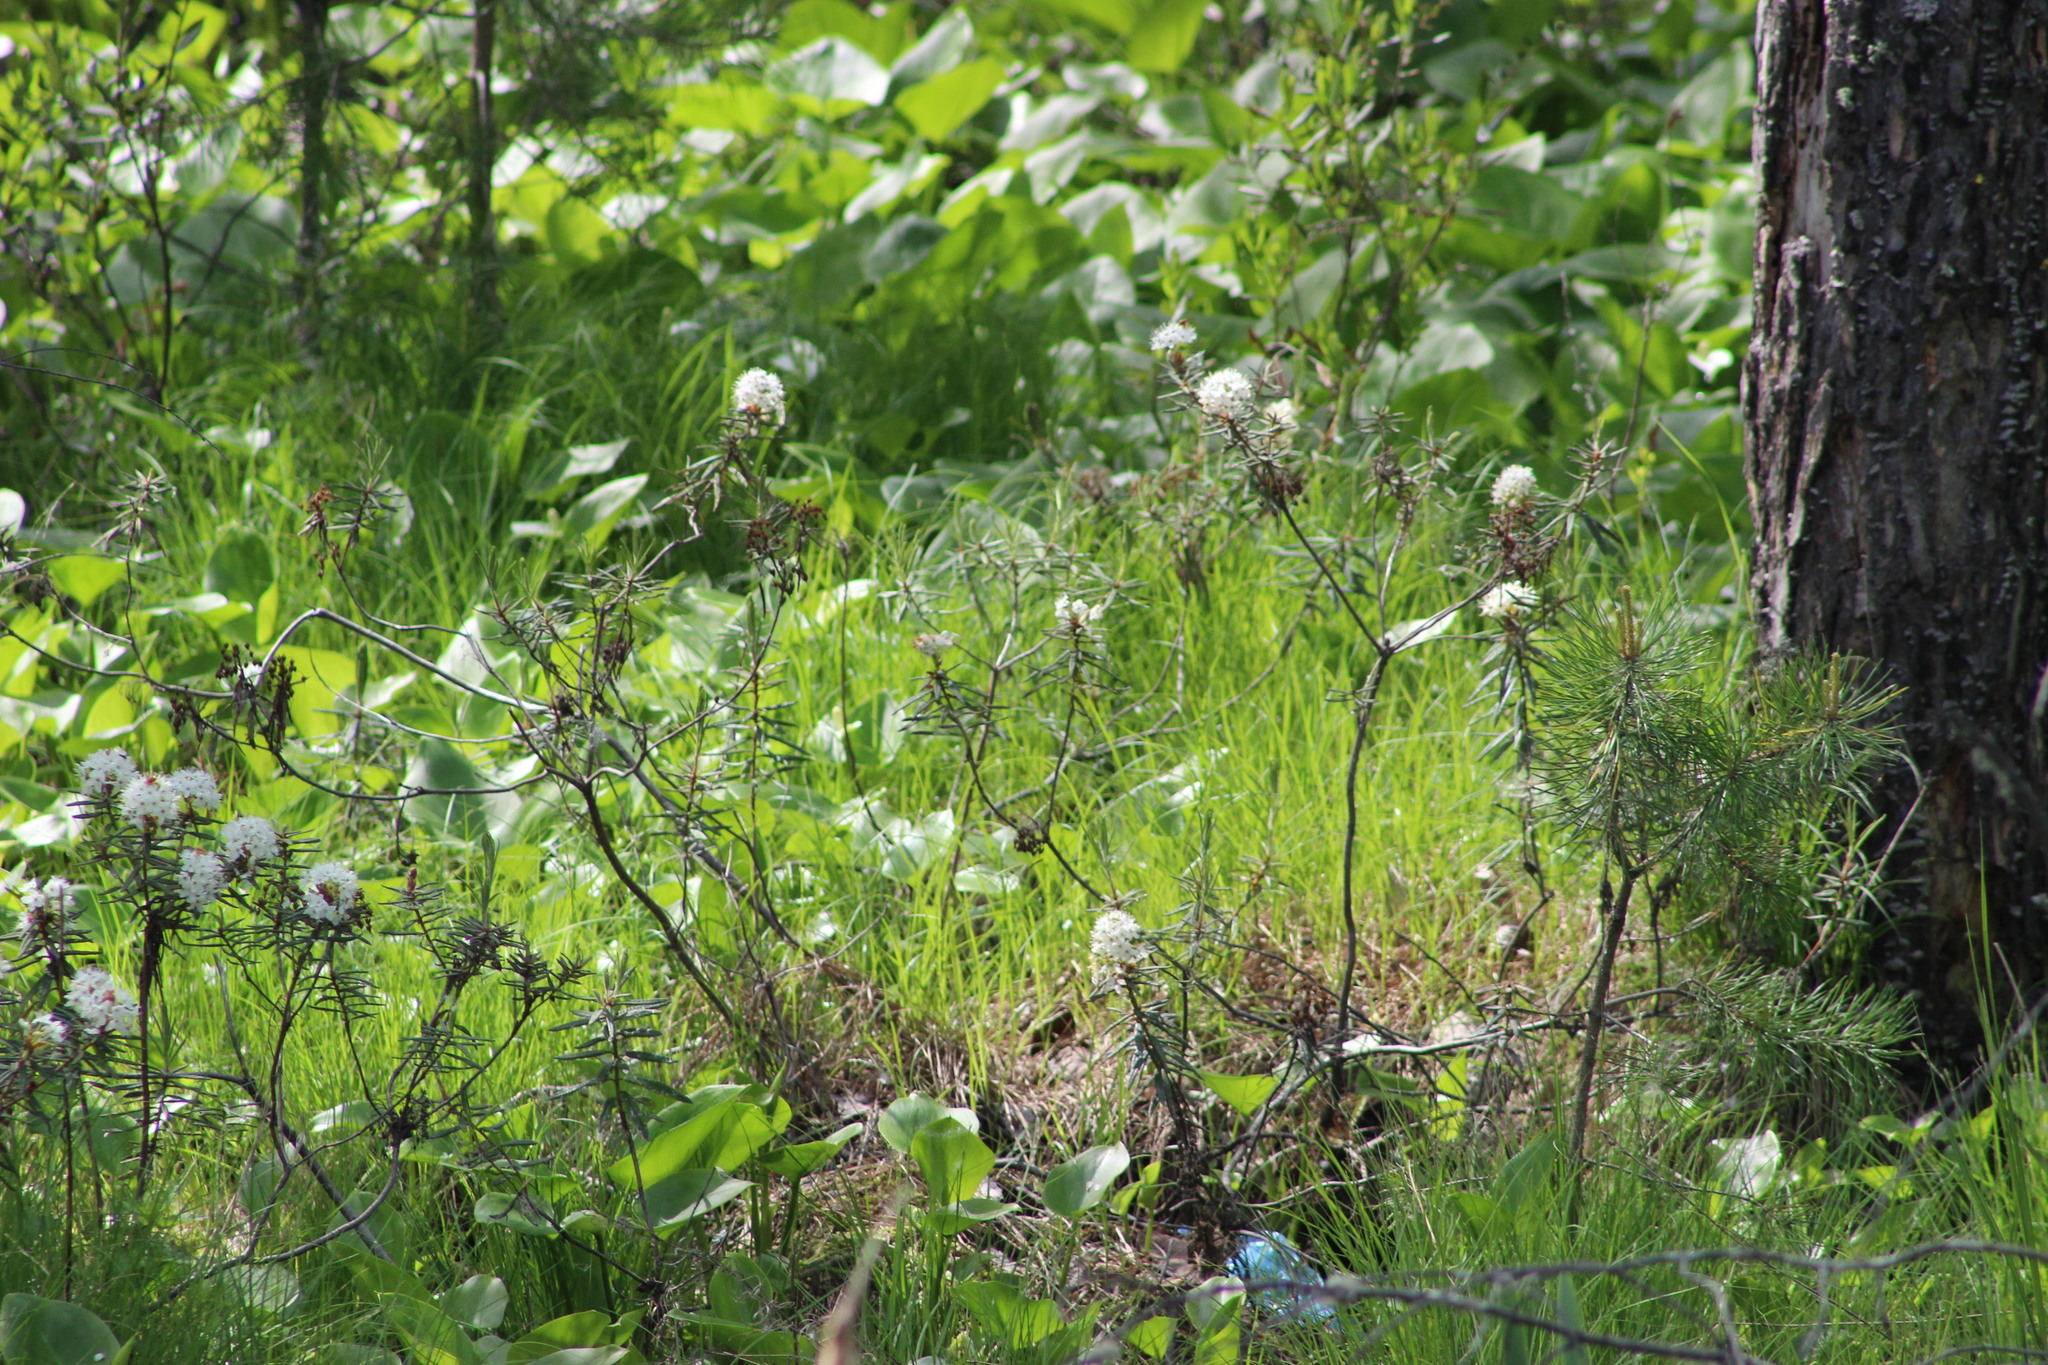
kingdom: Plantae
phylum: Tracheophyta
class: Magnoliopsida
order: Ericales
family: Ericaceae
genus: Rhododendron
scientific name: Rhododendron tomentosum
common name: Marsh labrador tea
